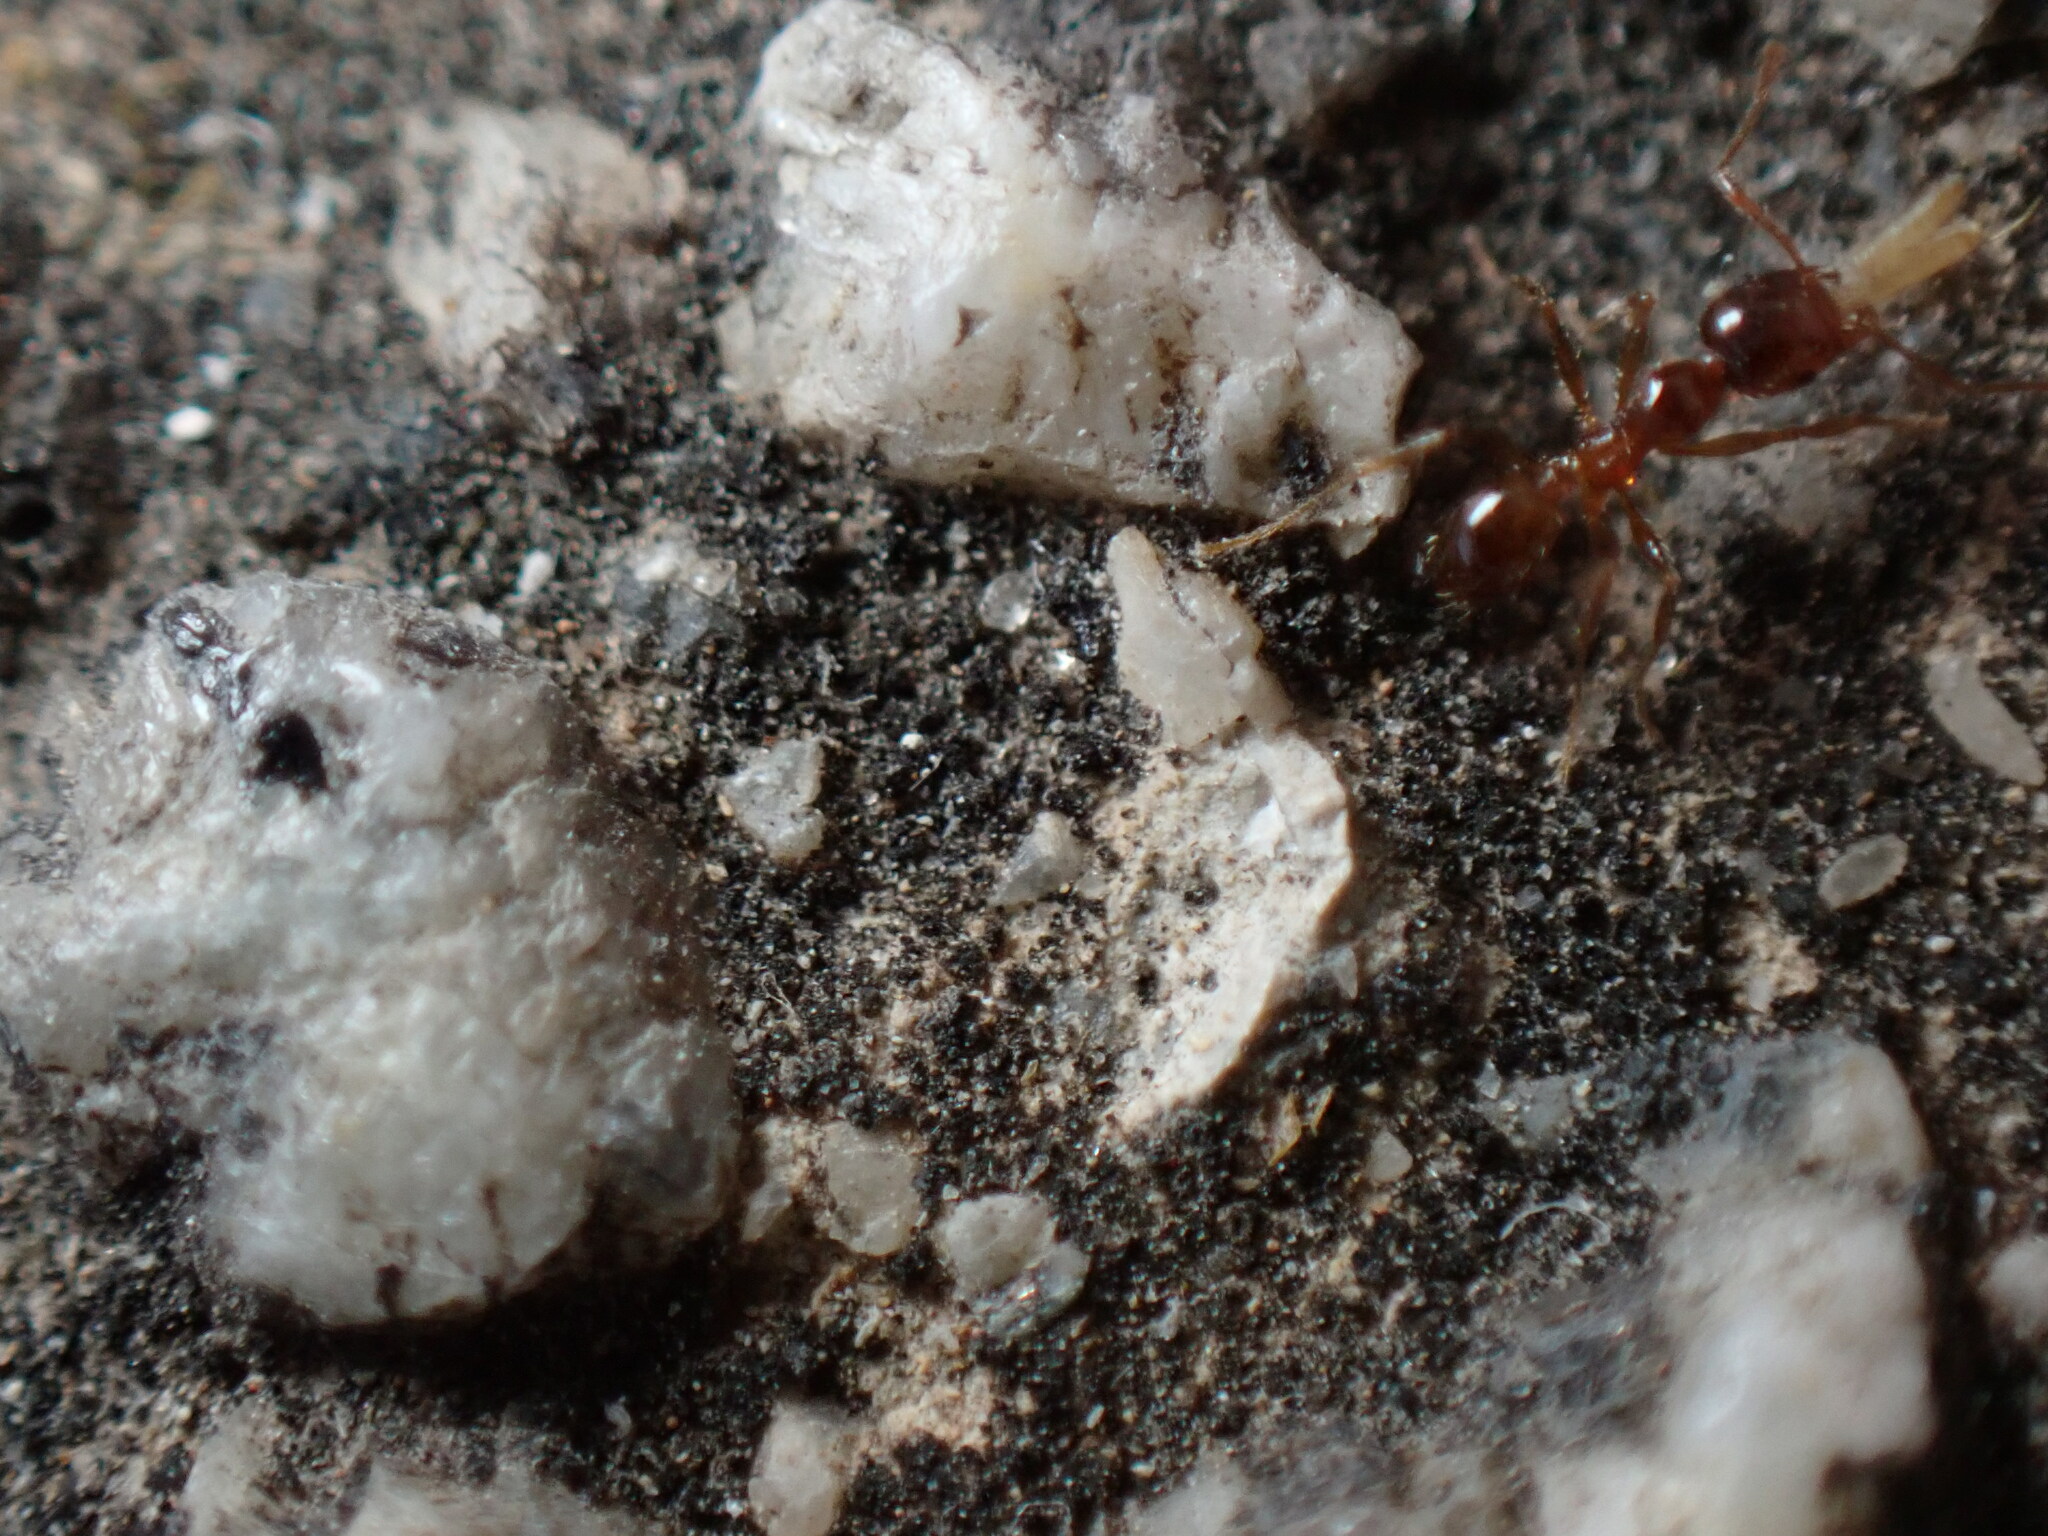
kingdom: Animalia
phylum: Arthropoda
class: Insecta
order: Hymenoptera
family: Formicidae
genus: Pheidole
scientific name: Pheidole pallidula
